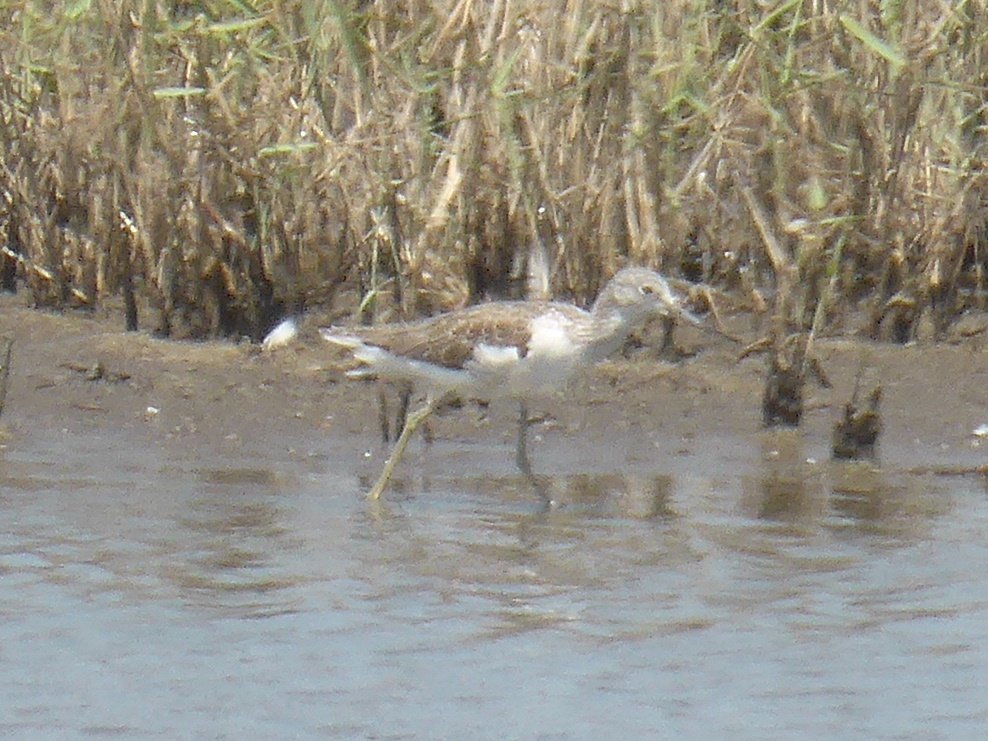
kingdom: Animalia
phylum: Chordata
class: Aves
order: Charadriiformes
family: Scolopacidae
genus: Tringa
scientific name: Tringa nebularia
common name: Common greenshank
